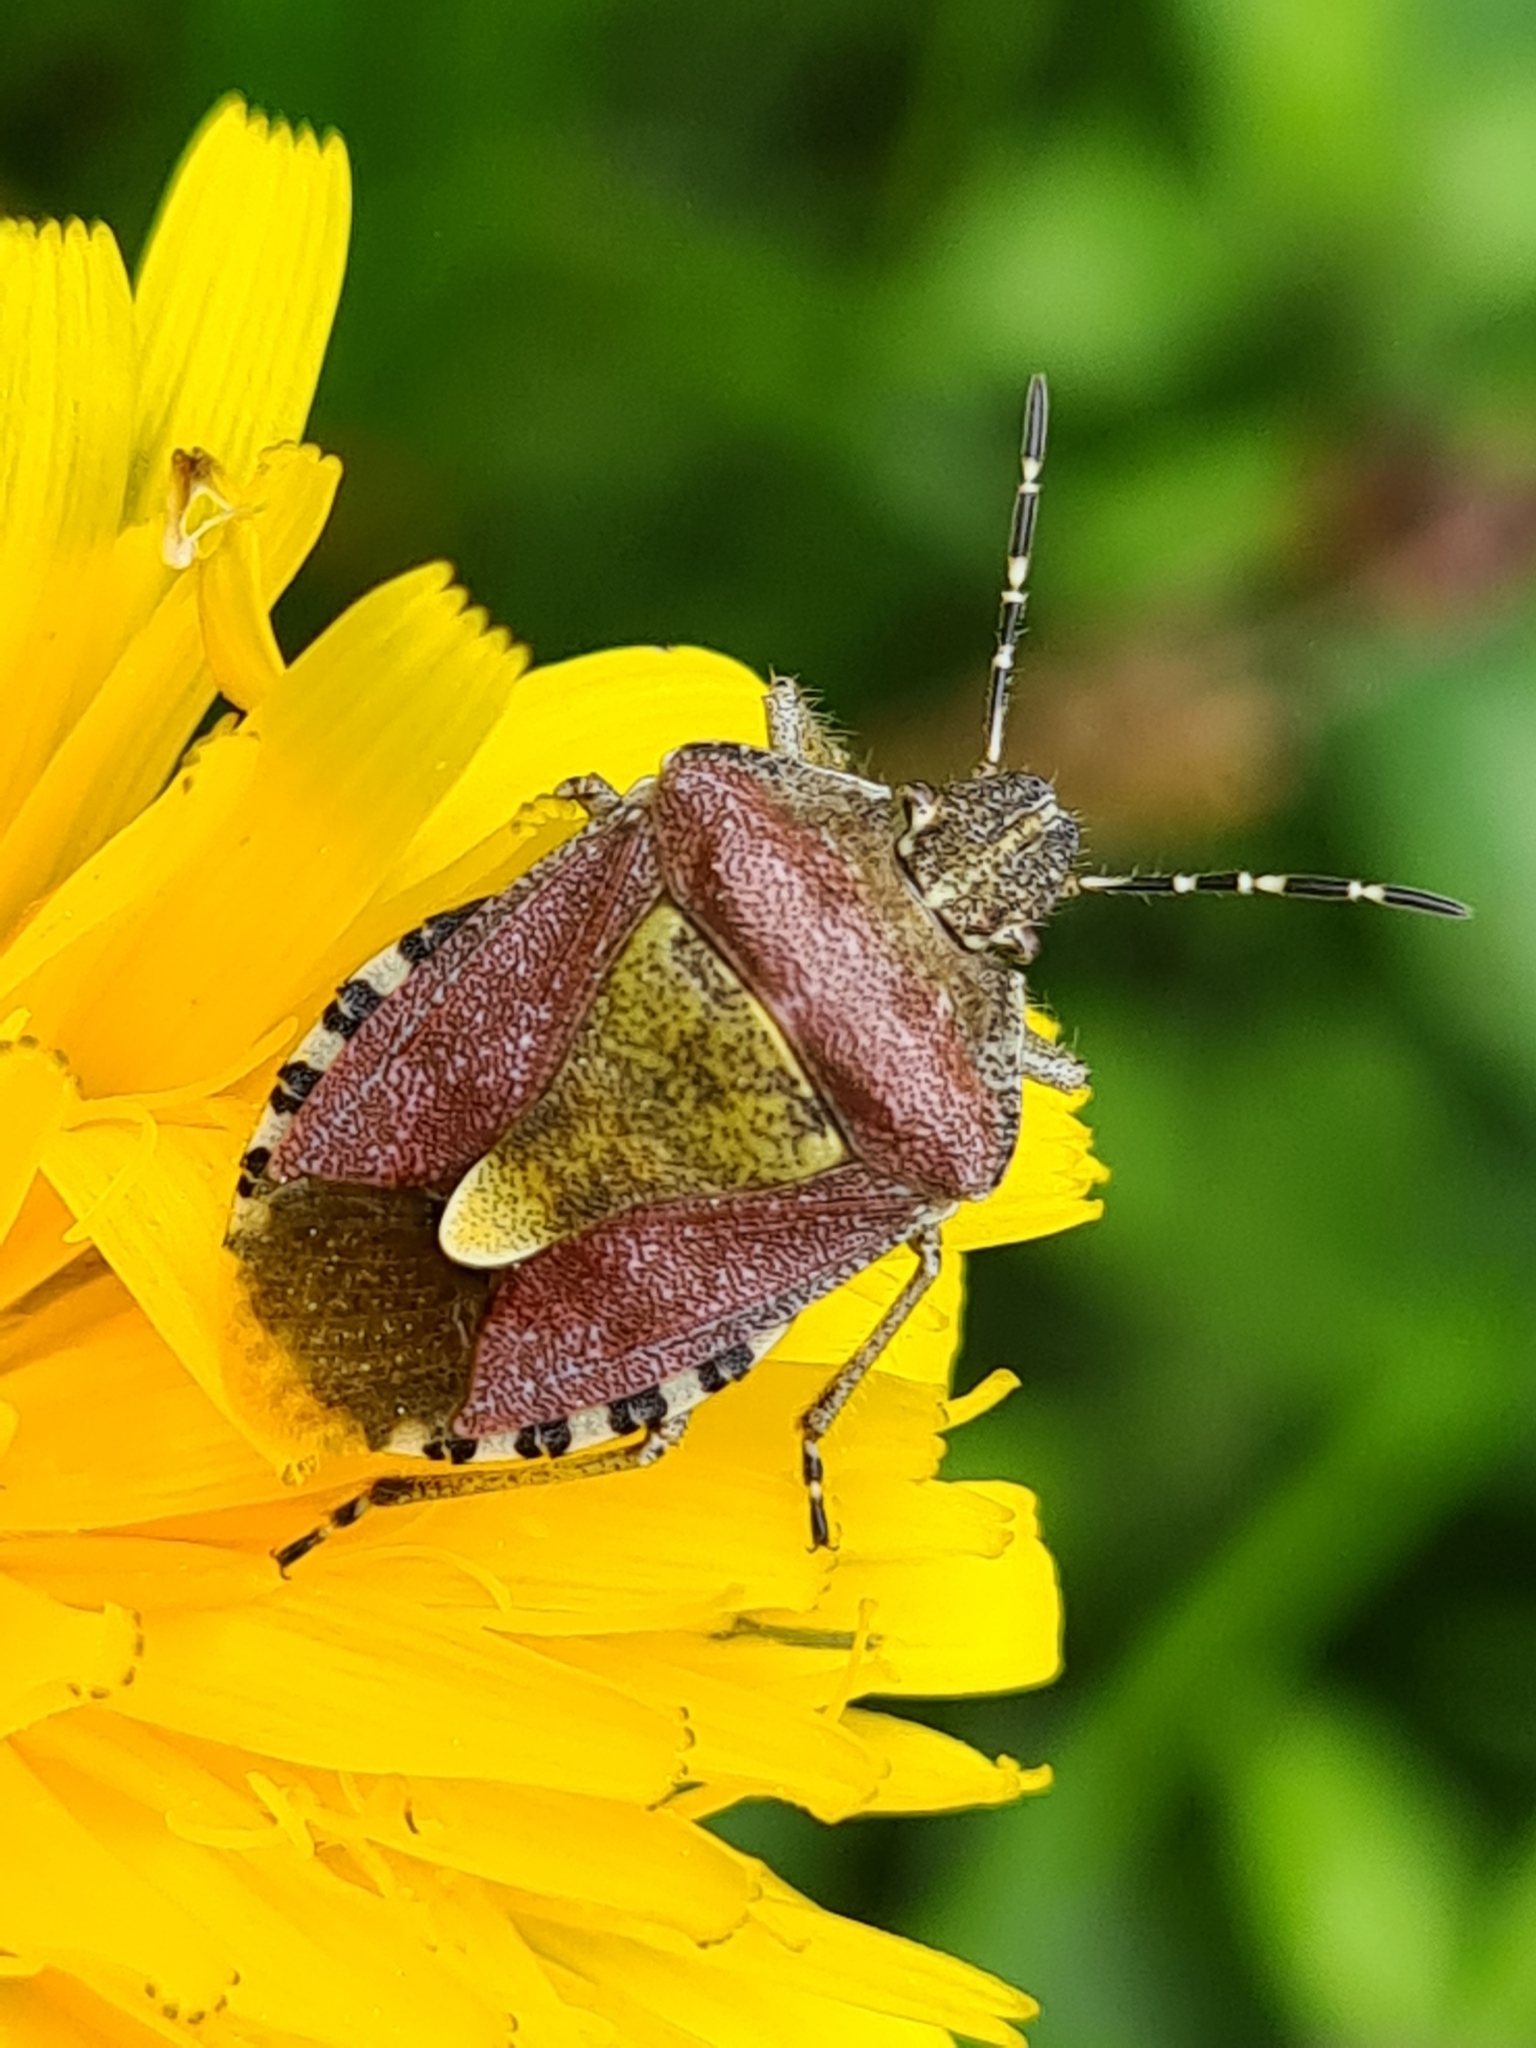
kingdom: Animalia
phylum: Arthropoda
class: Insecta
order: Hemiptera
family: Pentatomidae
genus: Dolycoris
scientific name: Dolycoris baccarum
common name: Sloe bug
